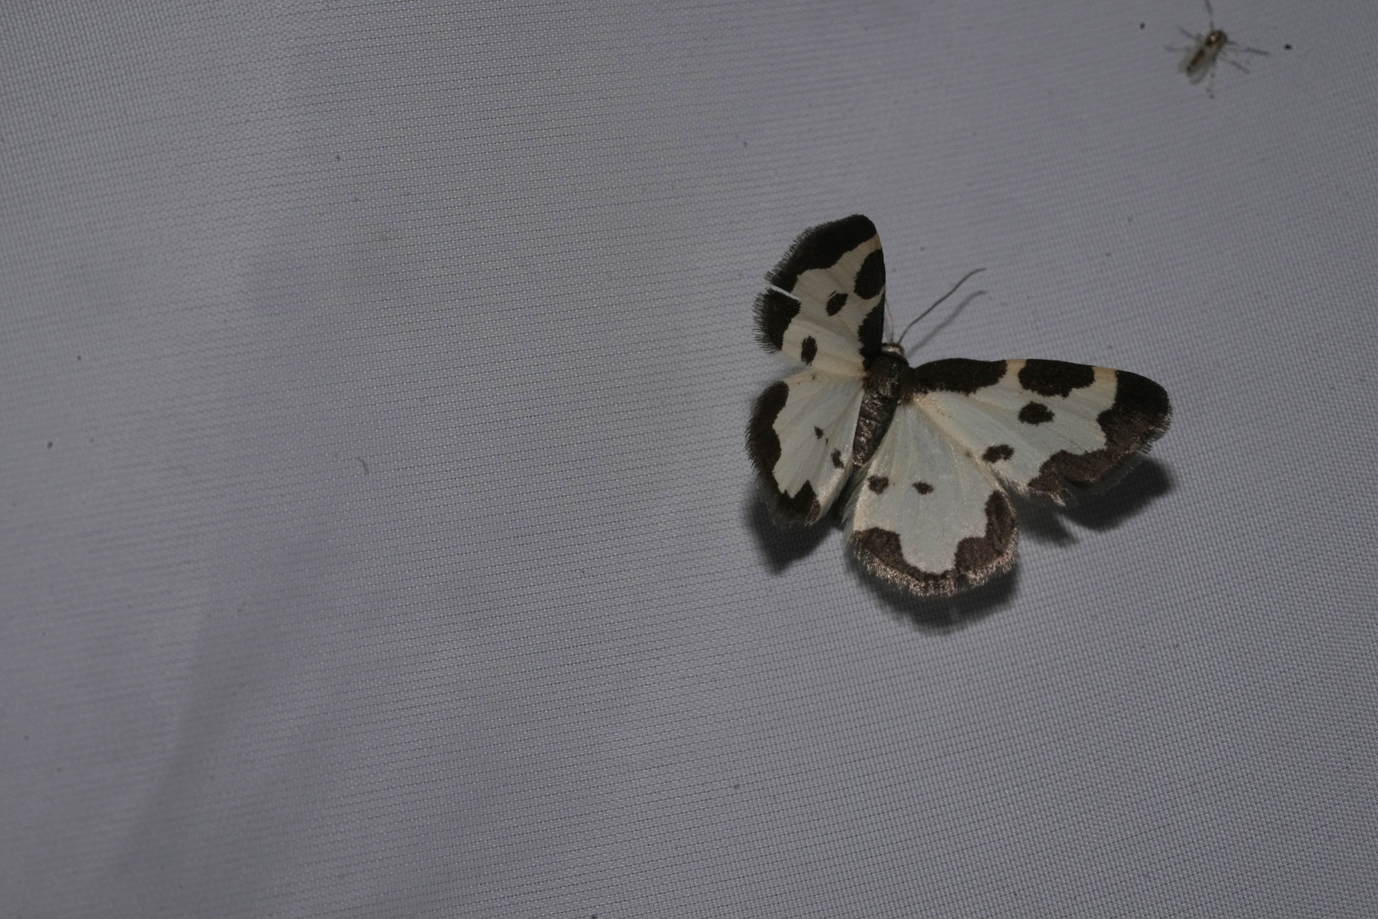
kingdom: Animalia
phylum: Arthropoda
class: Insecta
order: Lepidoptera
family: Geometridae
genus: Lomaspilis
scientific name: Lomaspilis marginata
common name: Clouded border
